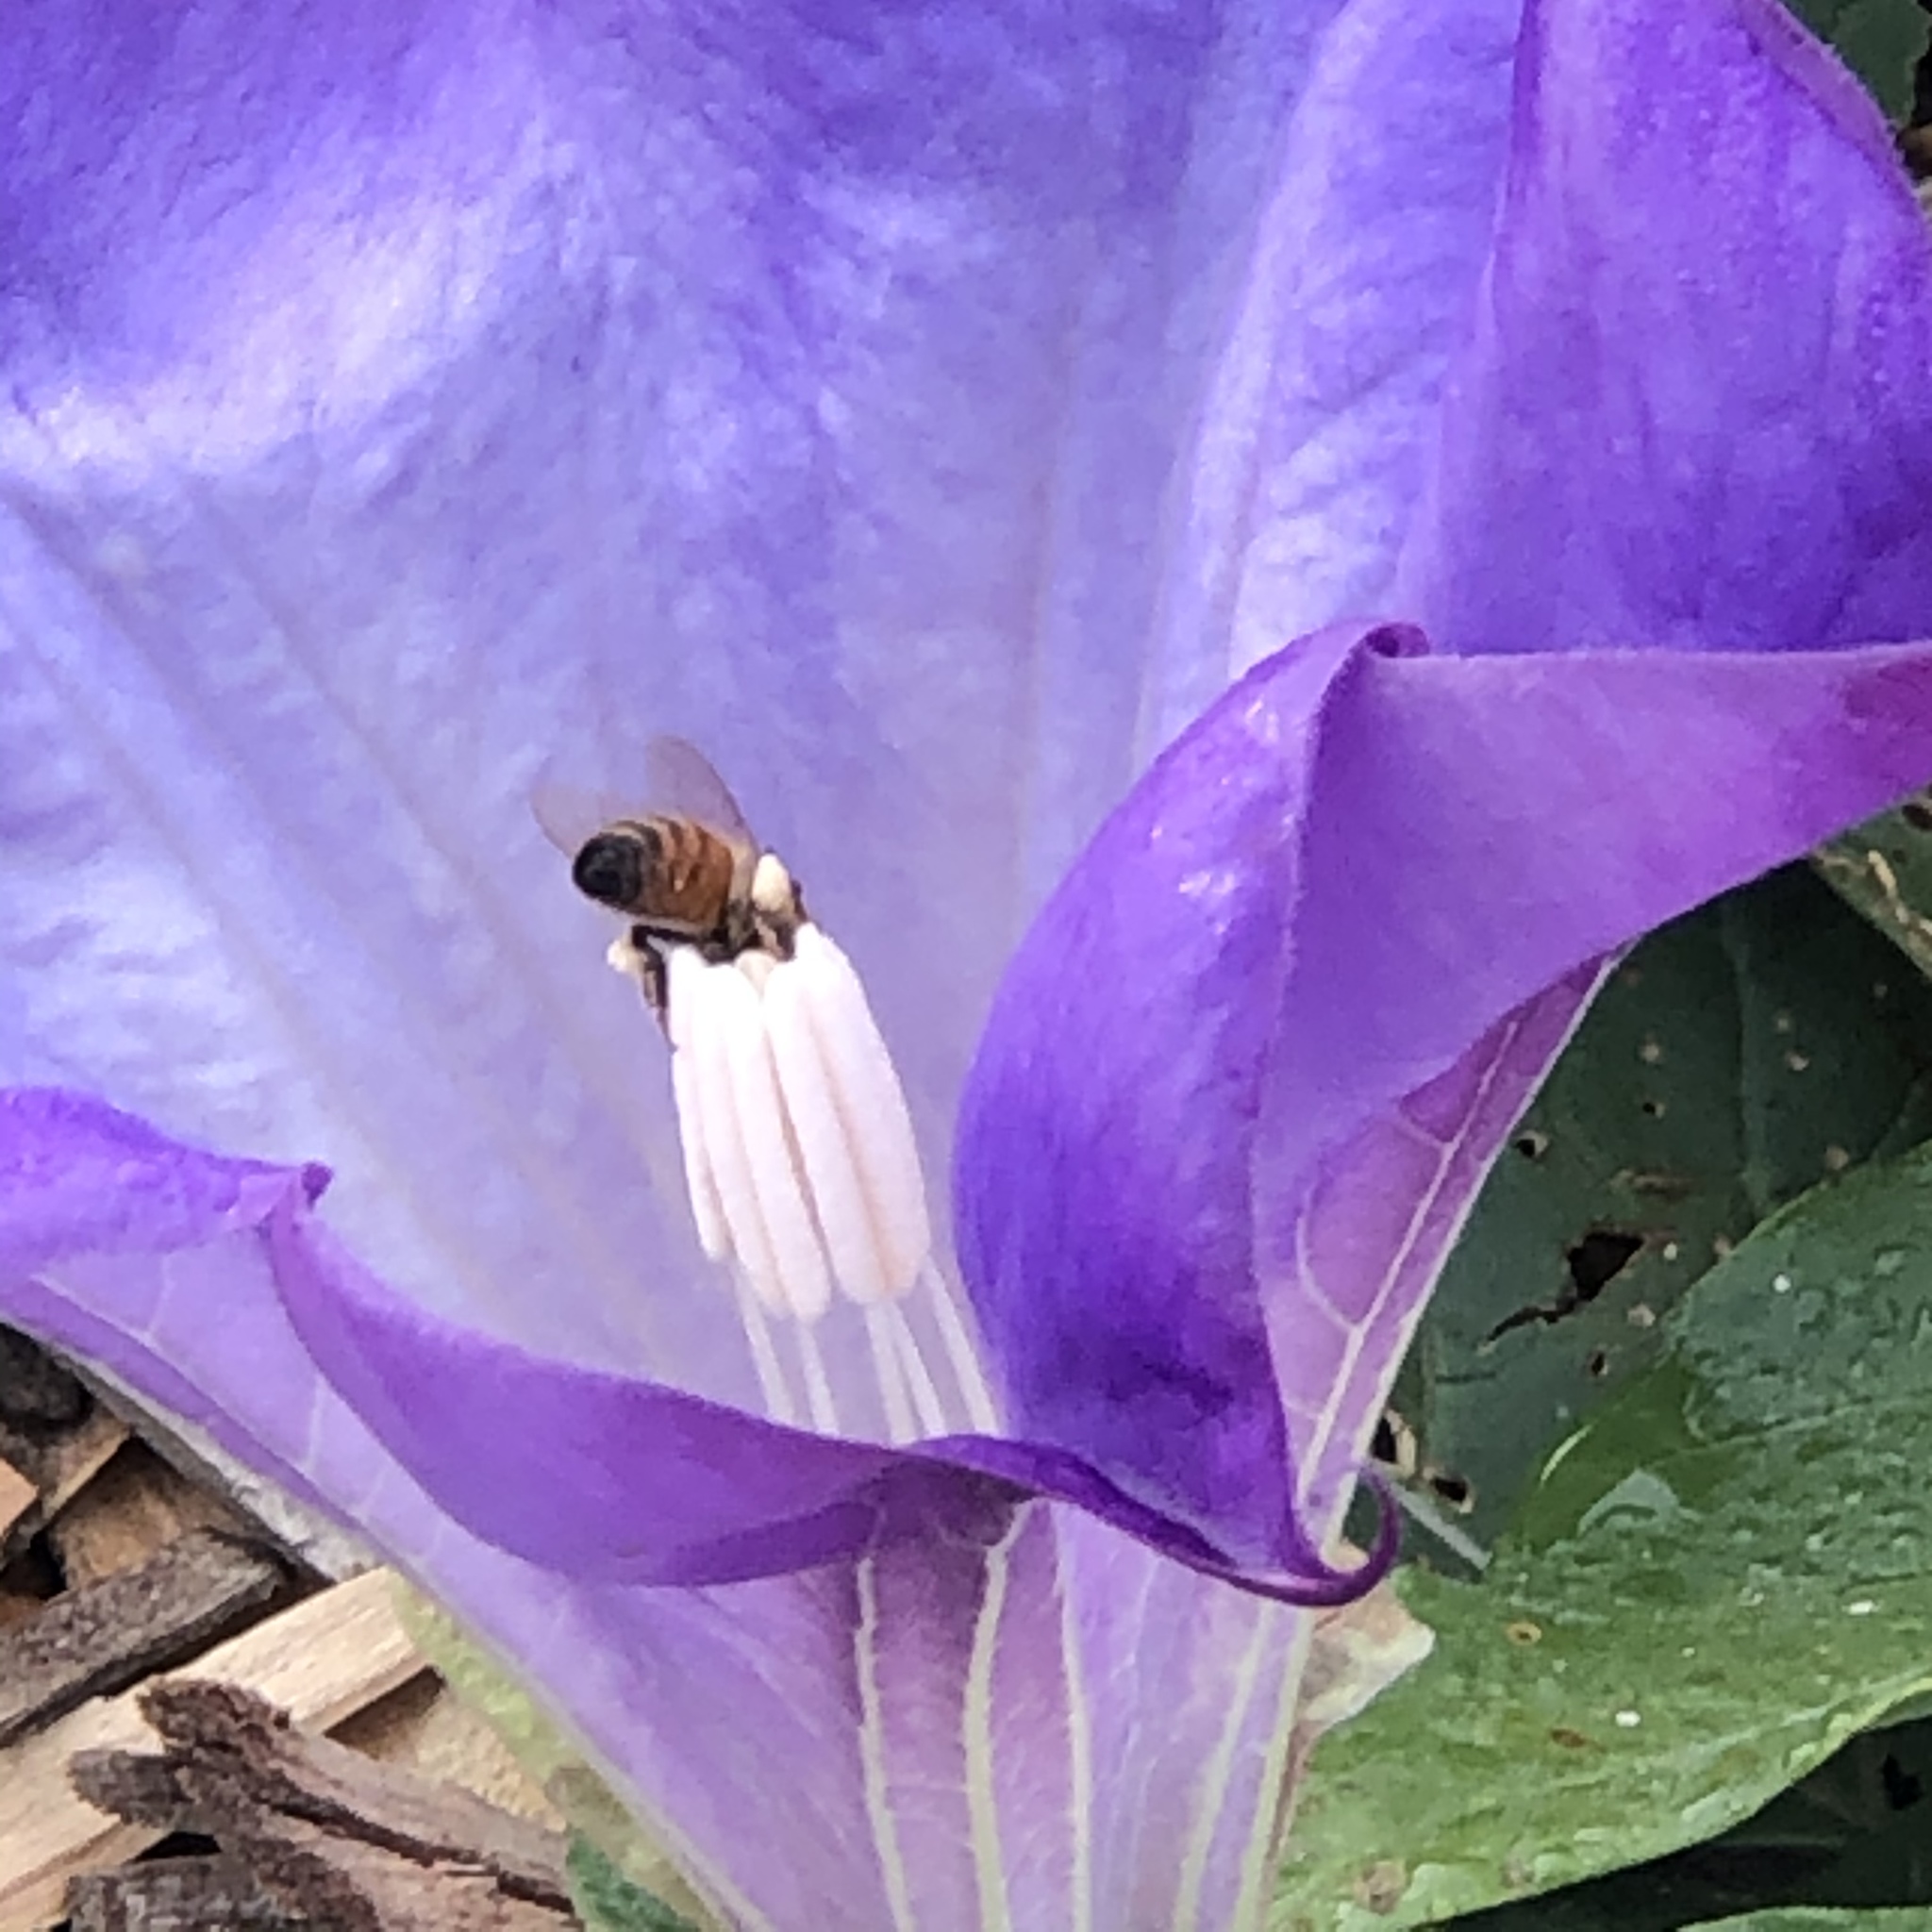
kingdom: Animalia
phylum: Arthropoda
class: Insecta
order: Hymenoptera
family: Apidae
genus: Apis
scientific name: Apis mellifera
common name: Honey bee
